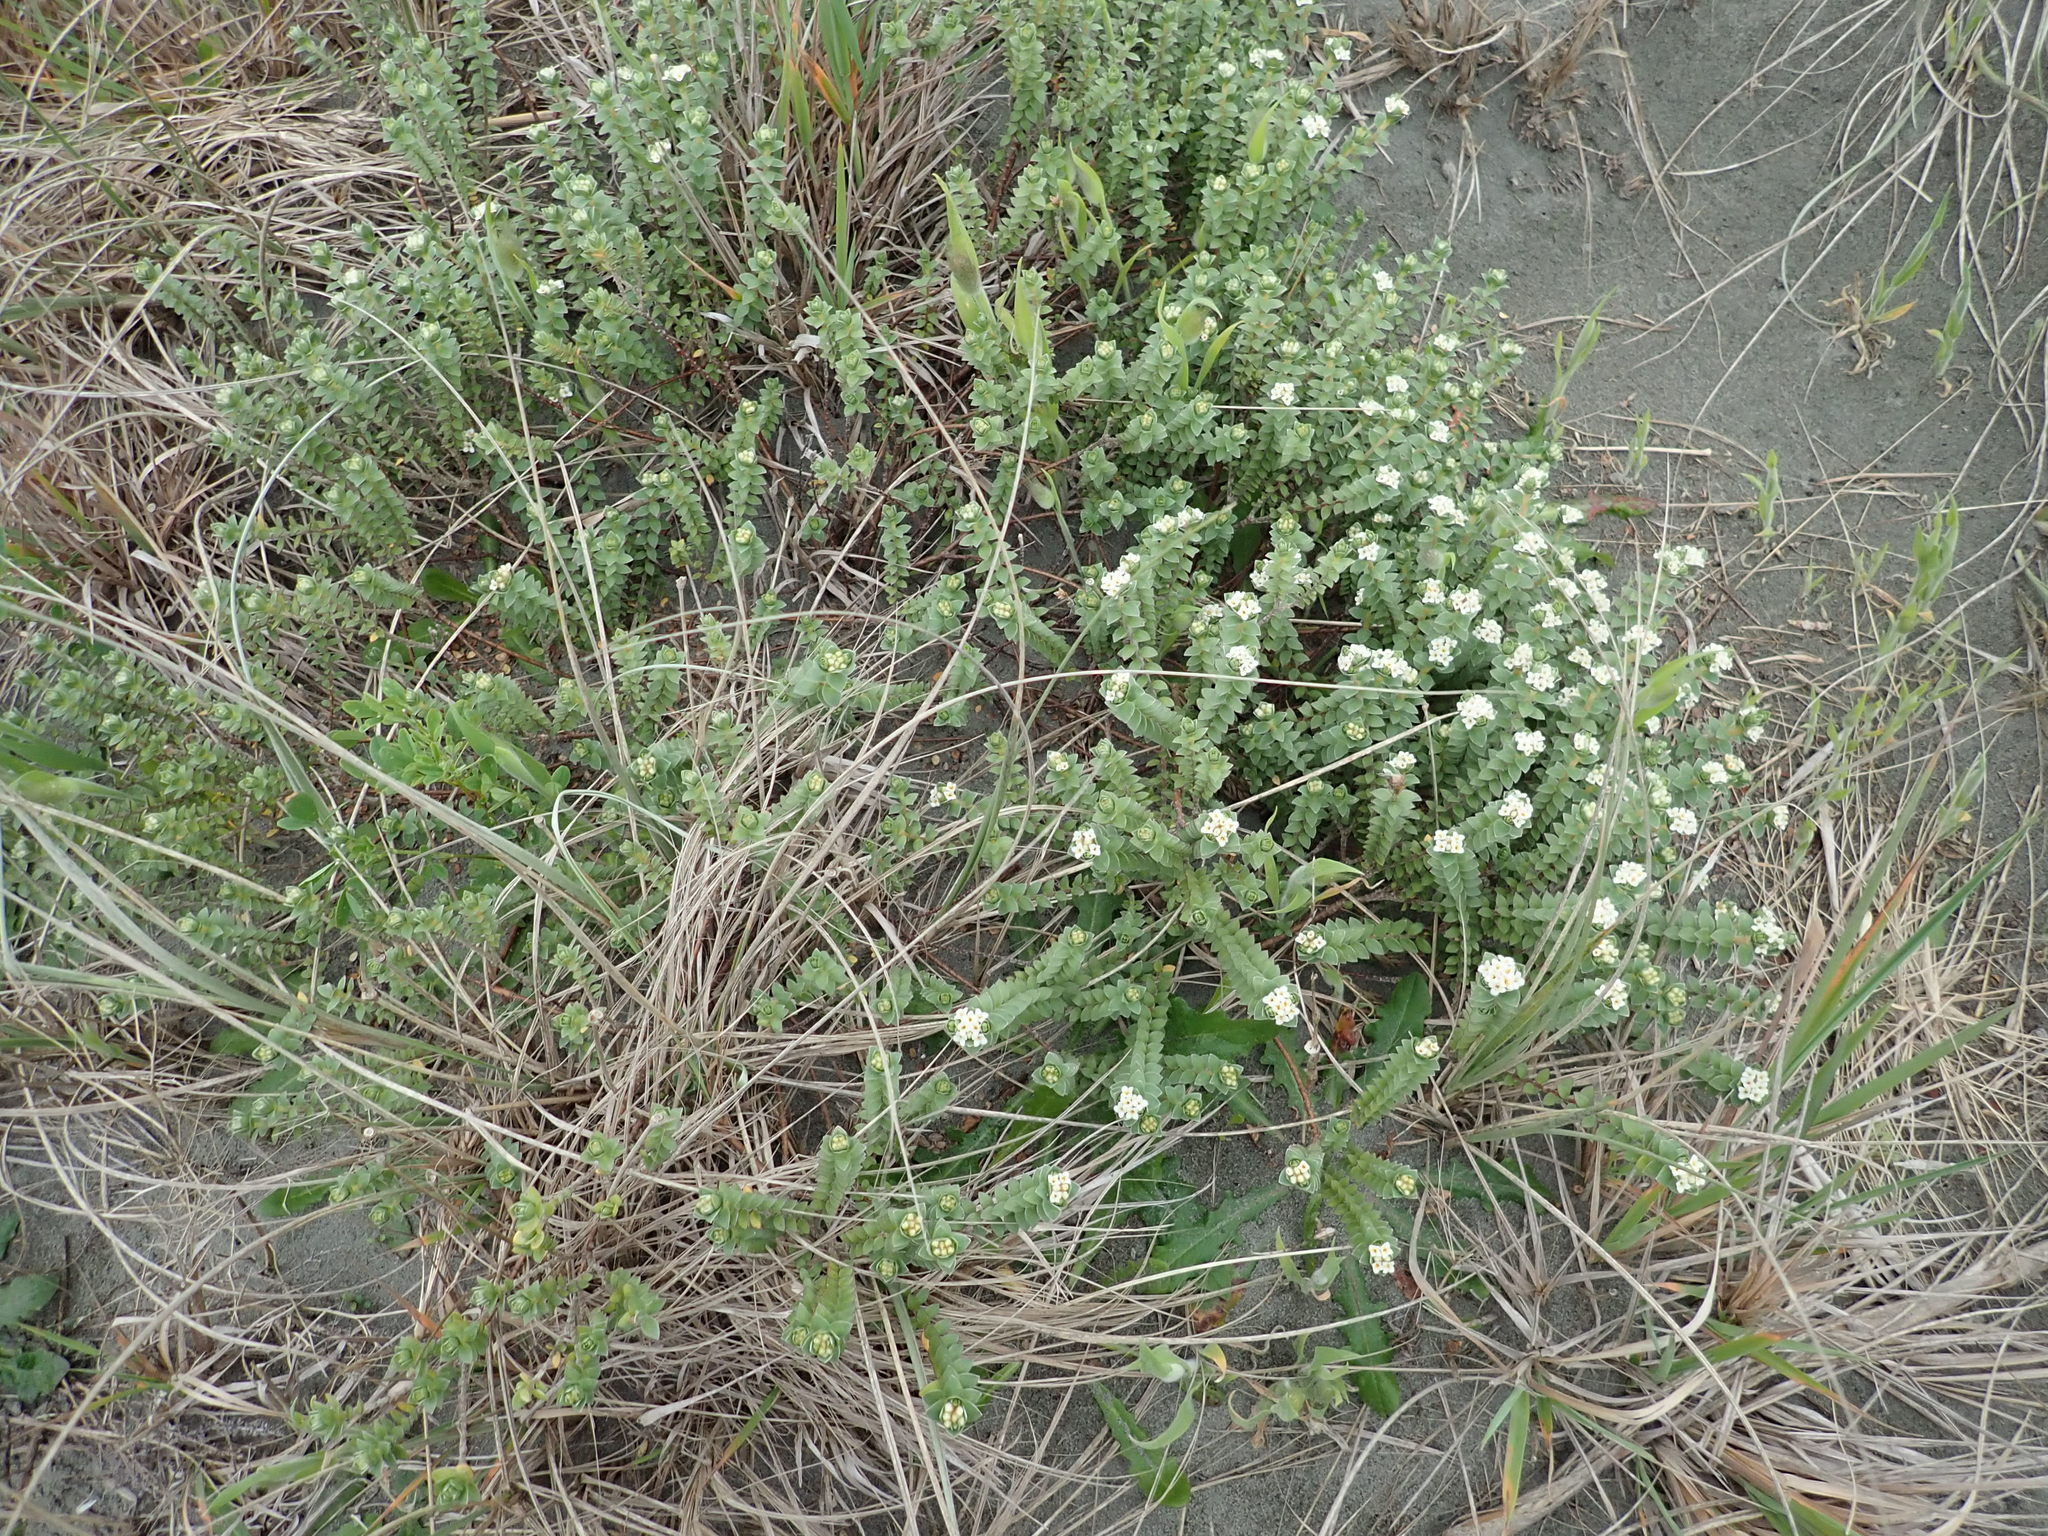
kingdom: Plantae
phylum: Tracheophyta
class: Magnoliopsida
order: Malvales
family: Thymelaeaceae
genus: Pimelea
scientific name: Pimelea villosa
